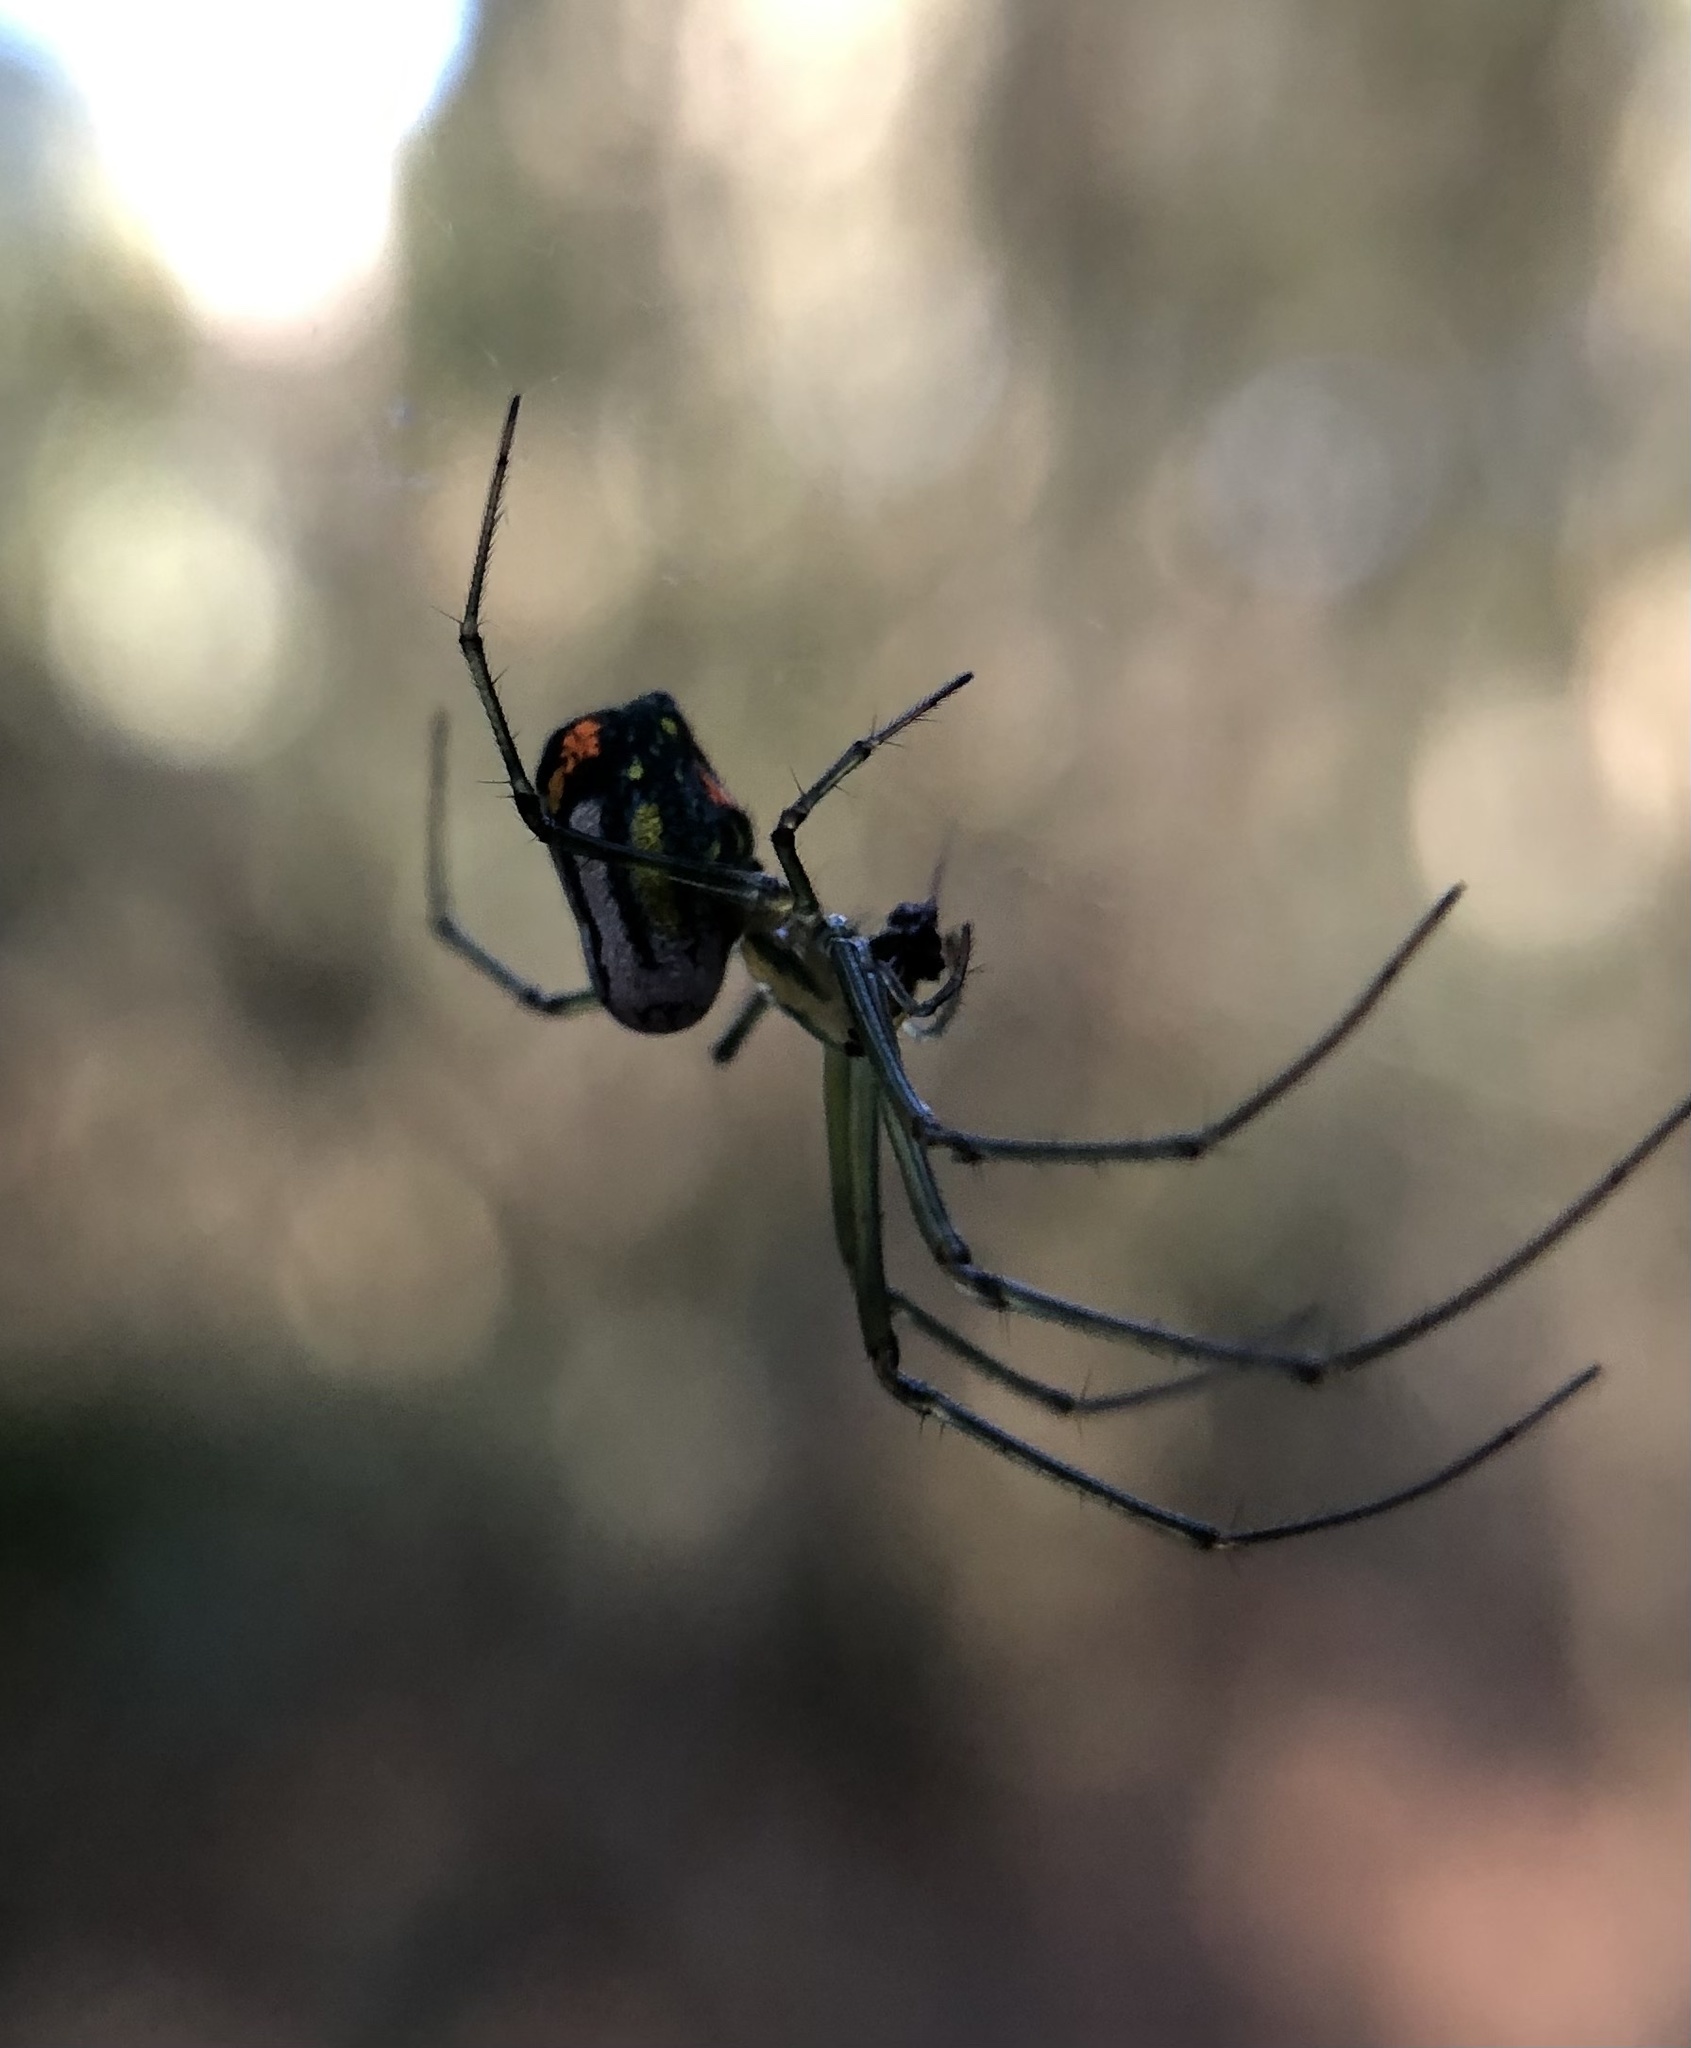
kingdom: Animalia
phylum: Arthropoda
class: Arachnida
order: Araneae
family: Tetragnathidae
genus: Leucauge
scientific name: Leucauge argyrobapta
